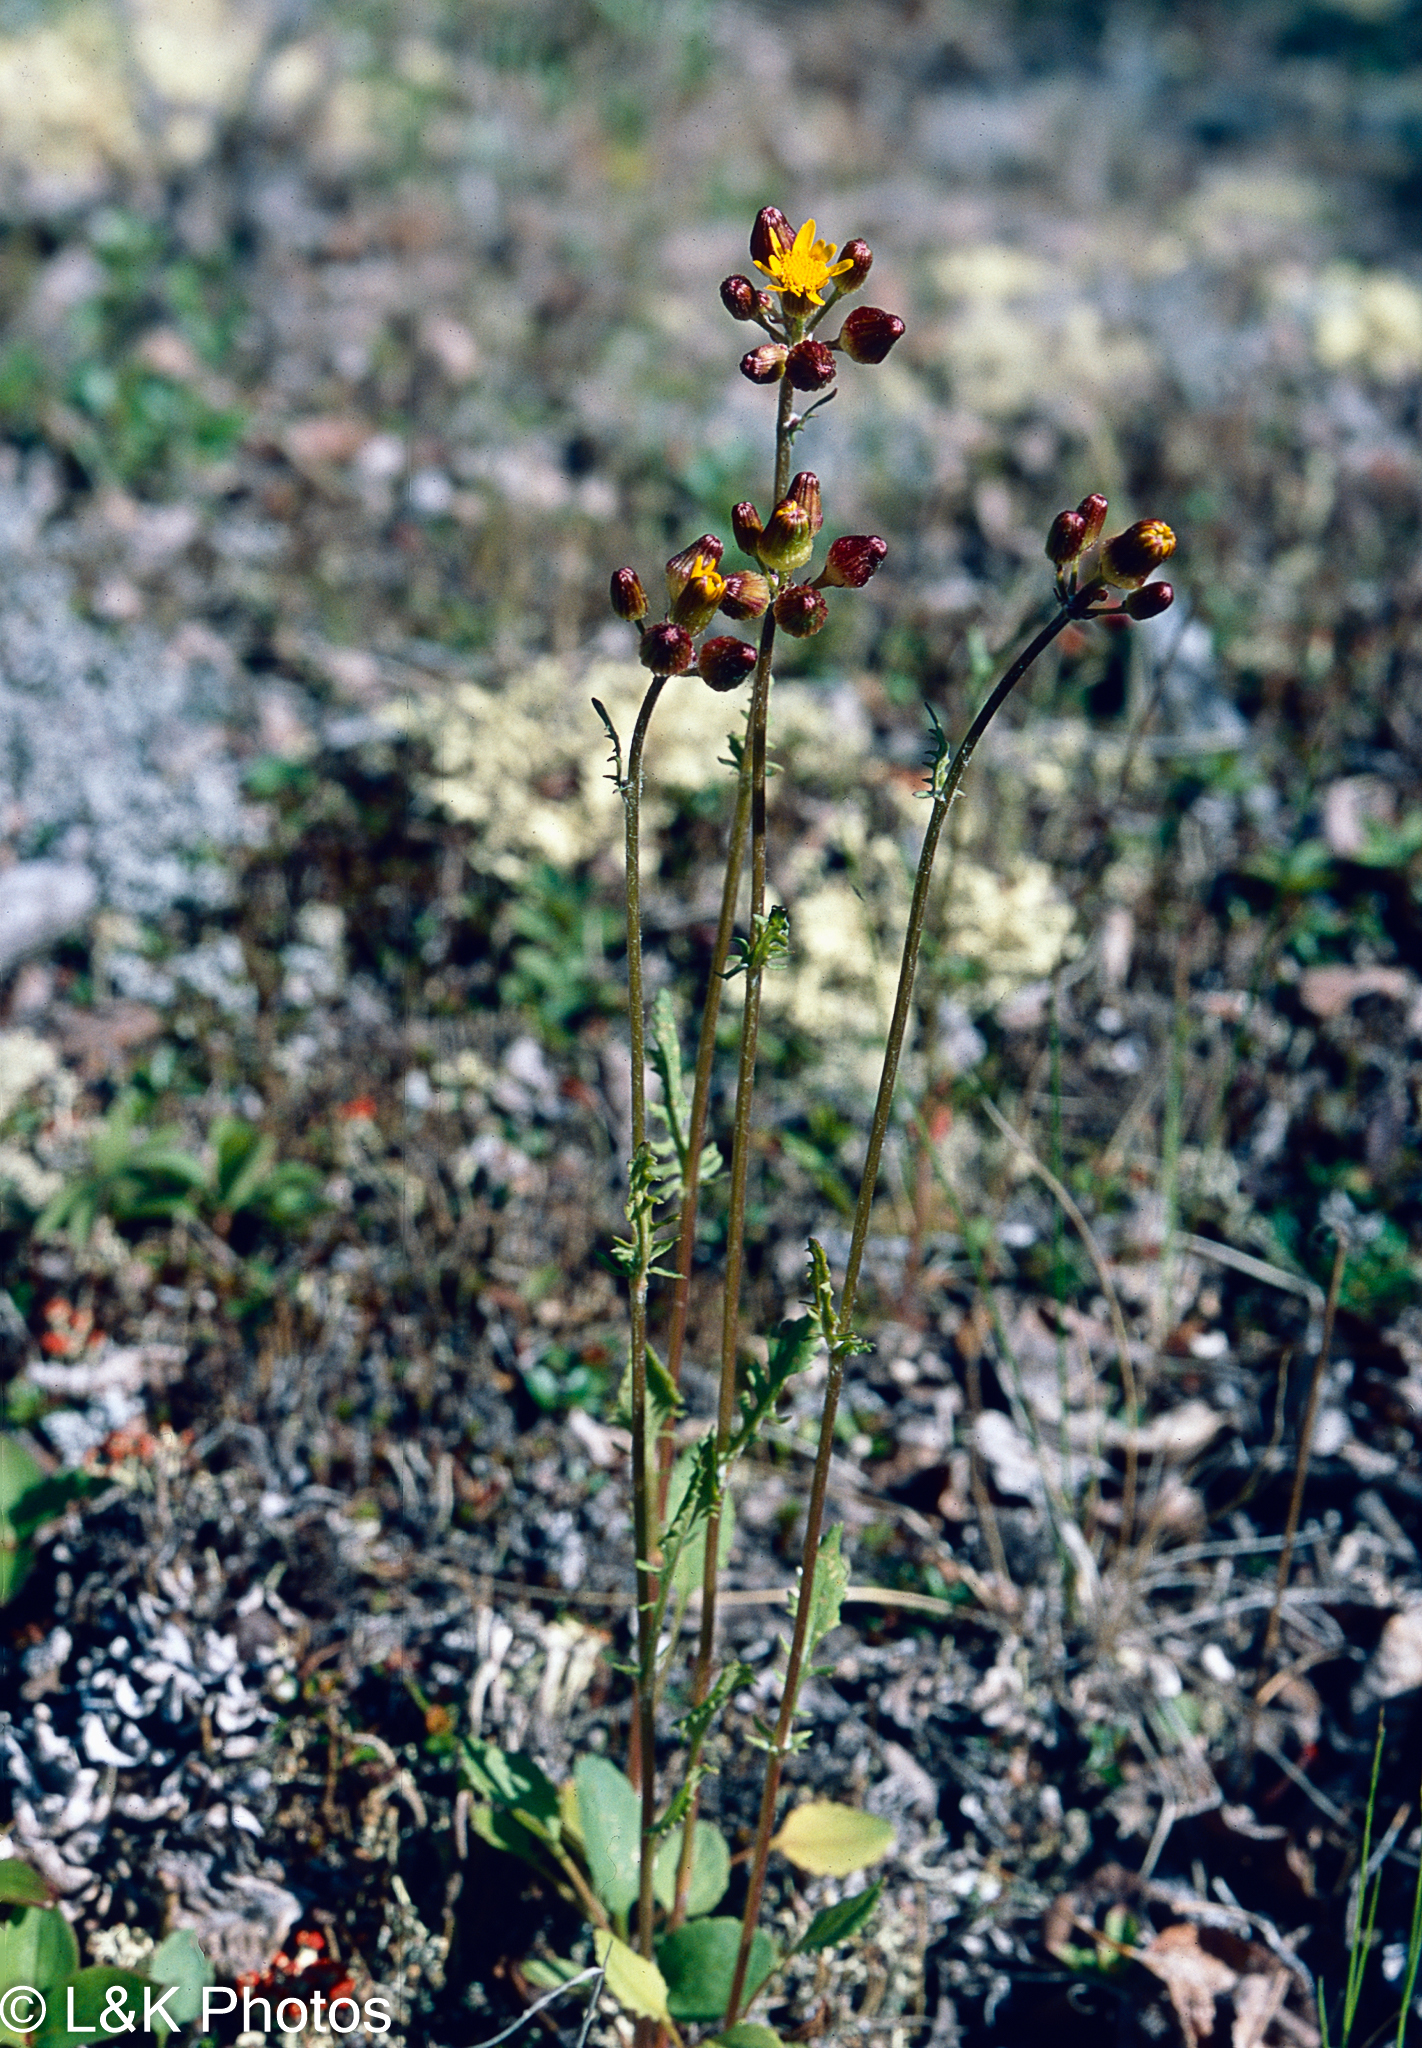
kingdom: Plantae
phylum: Tracheophyta
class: Magnoliopsida
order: Asterales
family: Asteraceae
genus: Packera
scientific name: Packera paupercula
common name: Balsam groundsel
